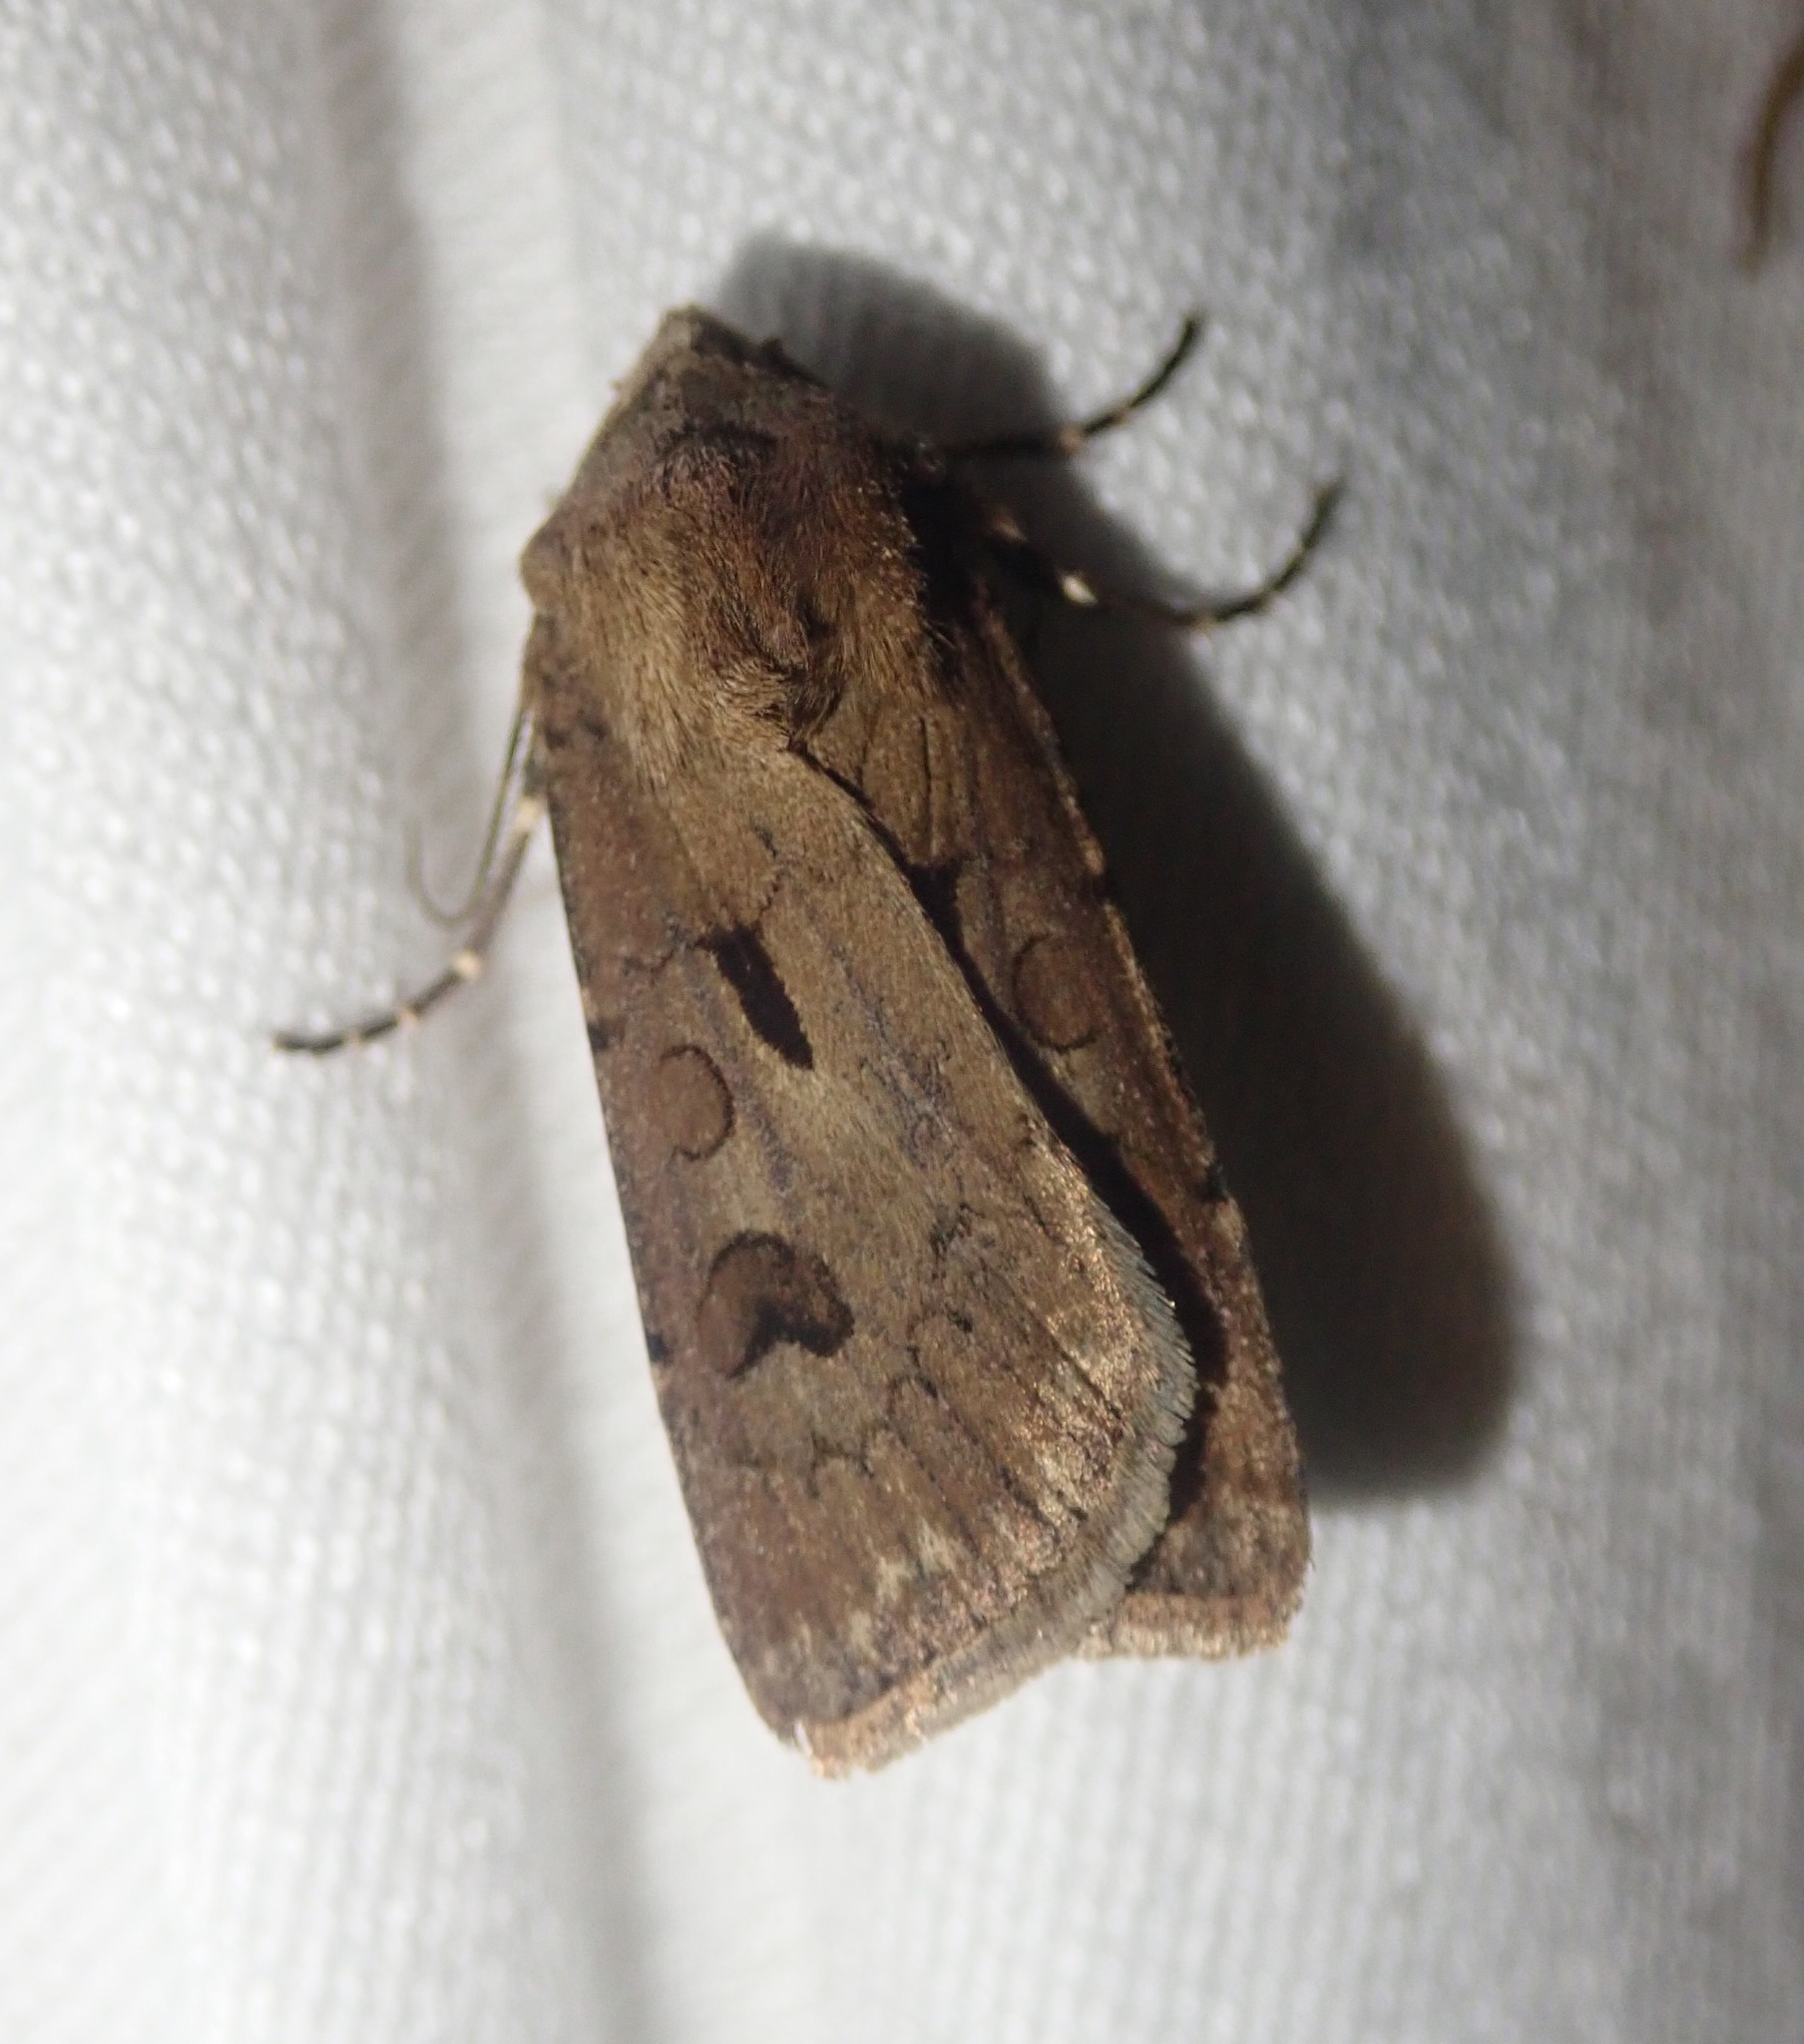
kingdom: Animalia
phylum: Arthropoda
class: Insecta
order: Lepidoptera
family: Noctuidae
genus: Agrotis
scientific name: Agrotis exclamationis
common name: Heart and dart
